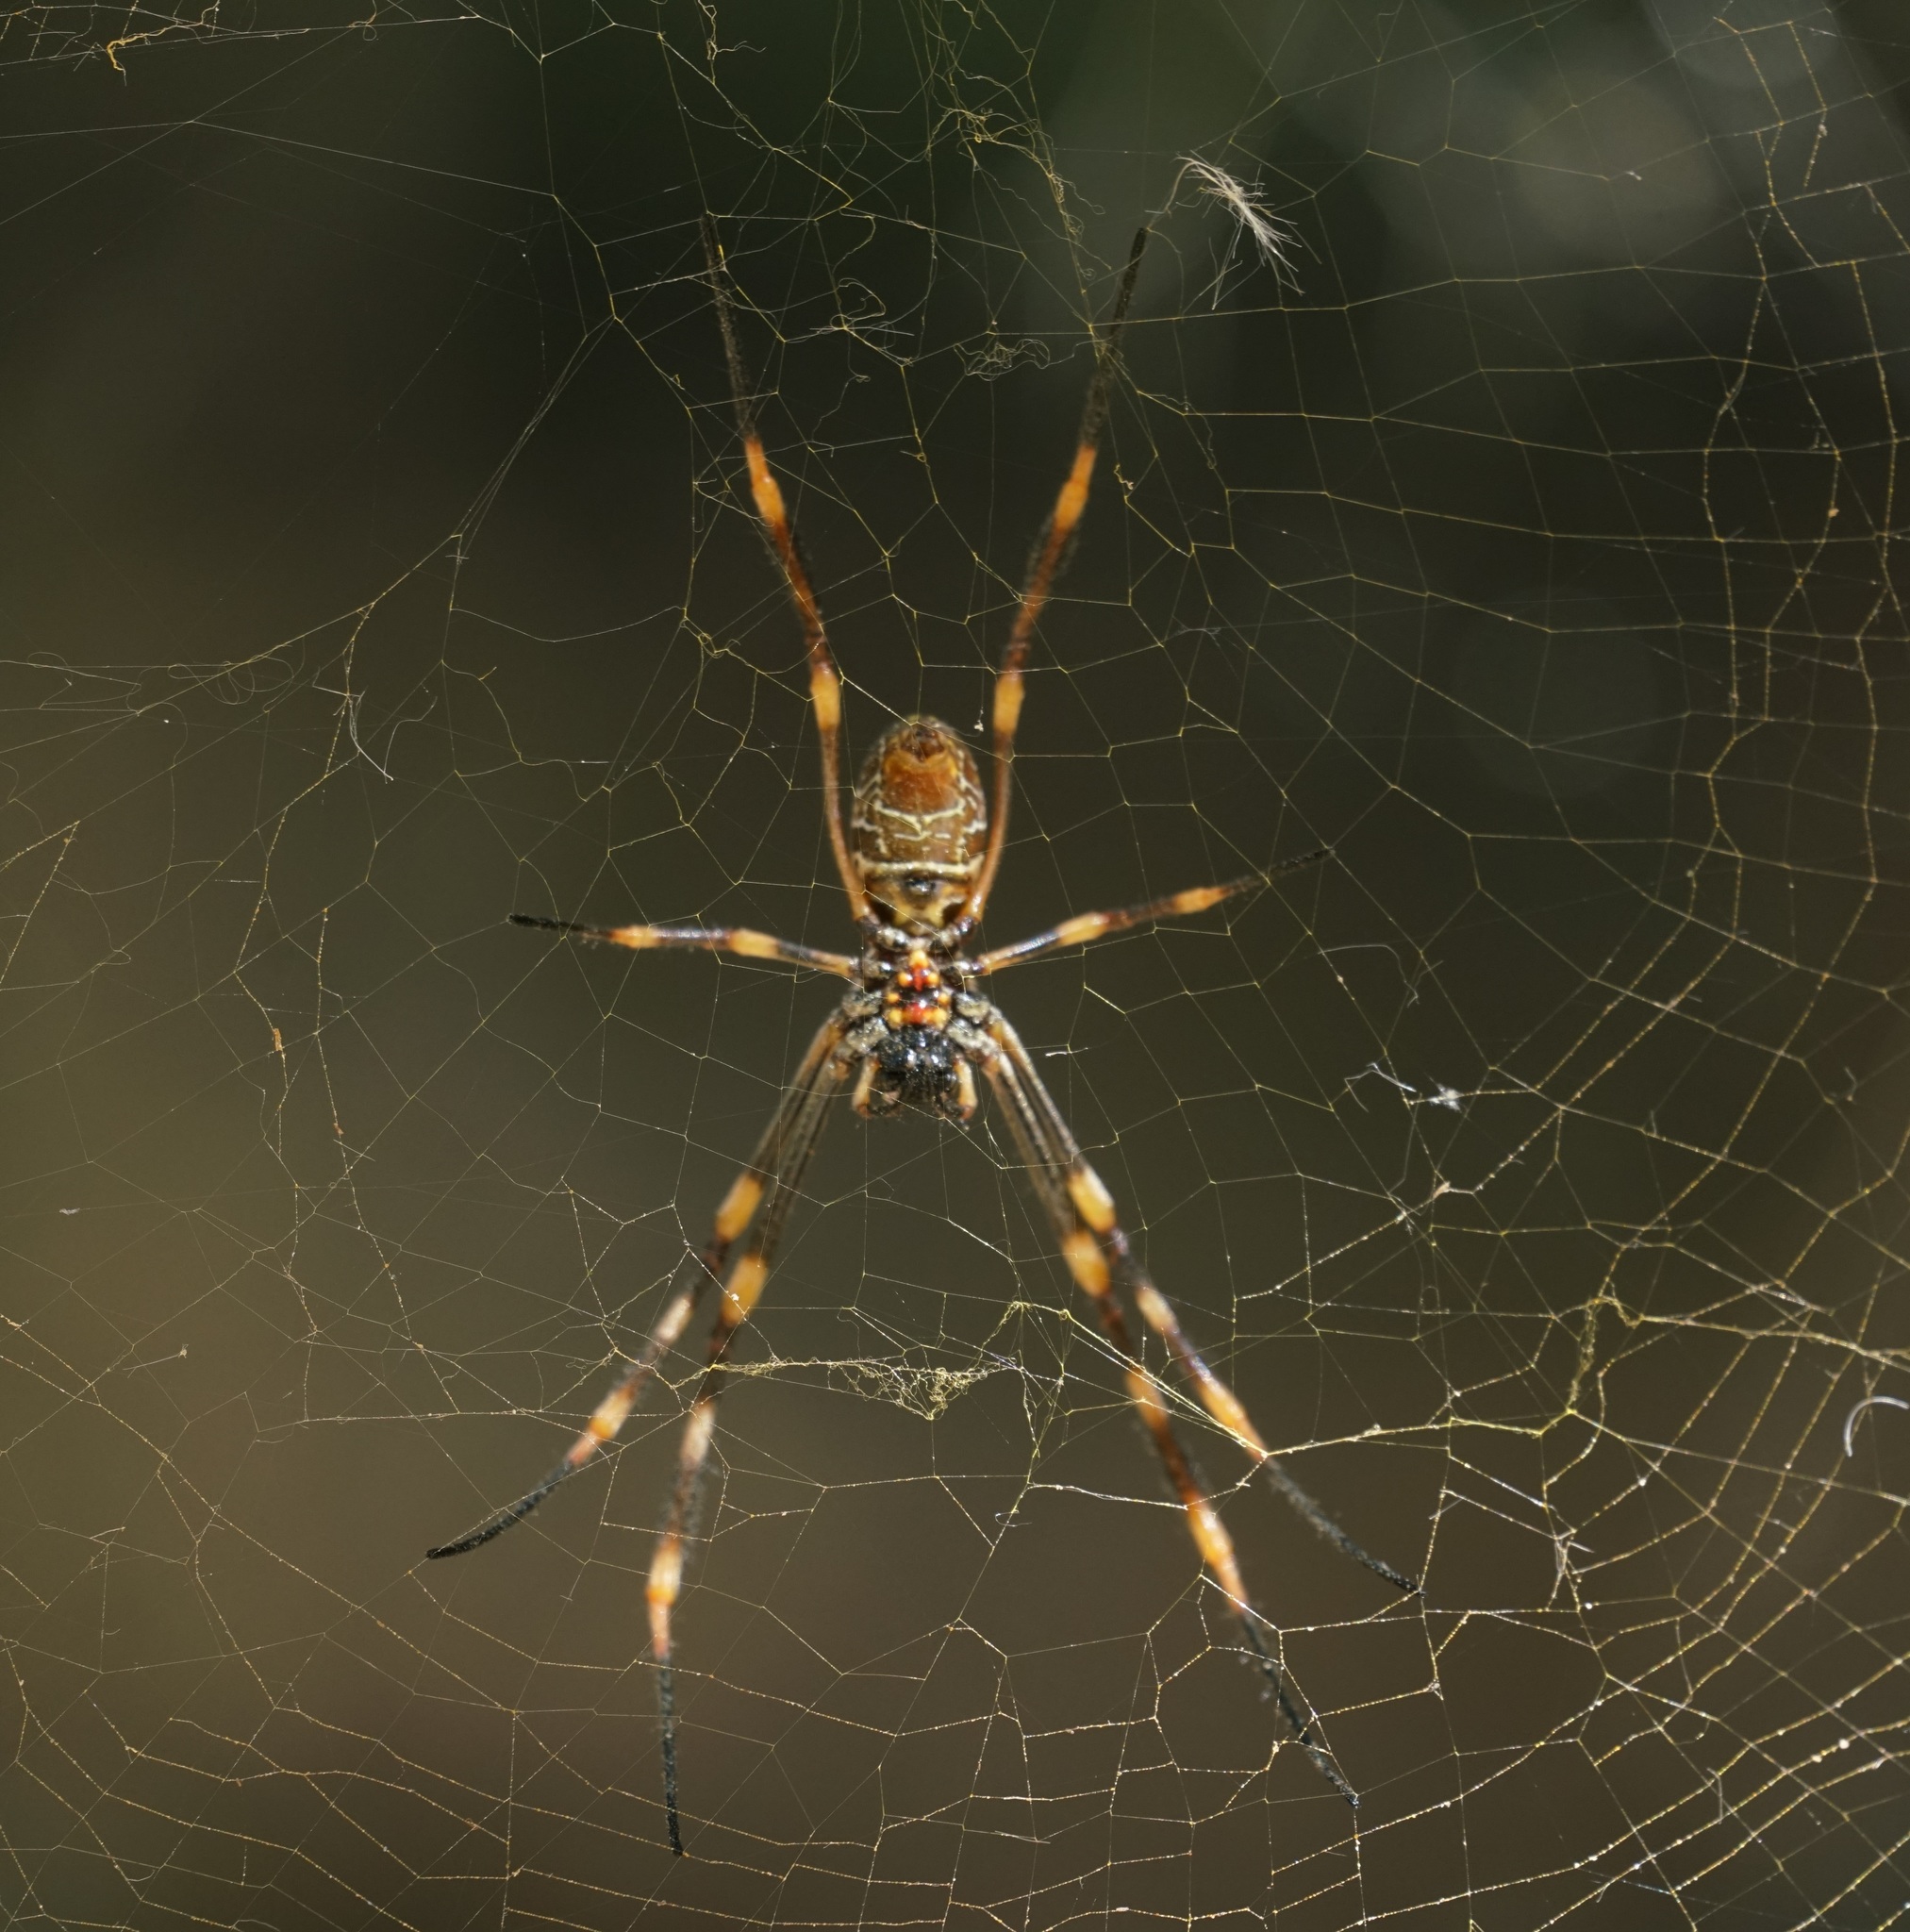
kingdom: Animalia
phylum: Arthropoda
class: Arachnida
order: Araneae
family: Araneidae
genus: Trichonephila
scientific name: Trichonephila plumipes
